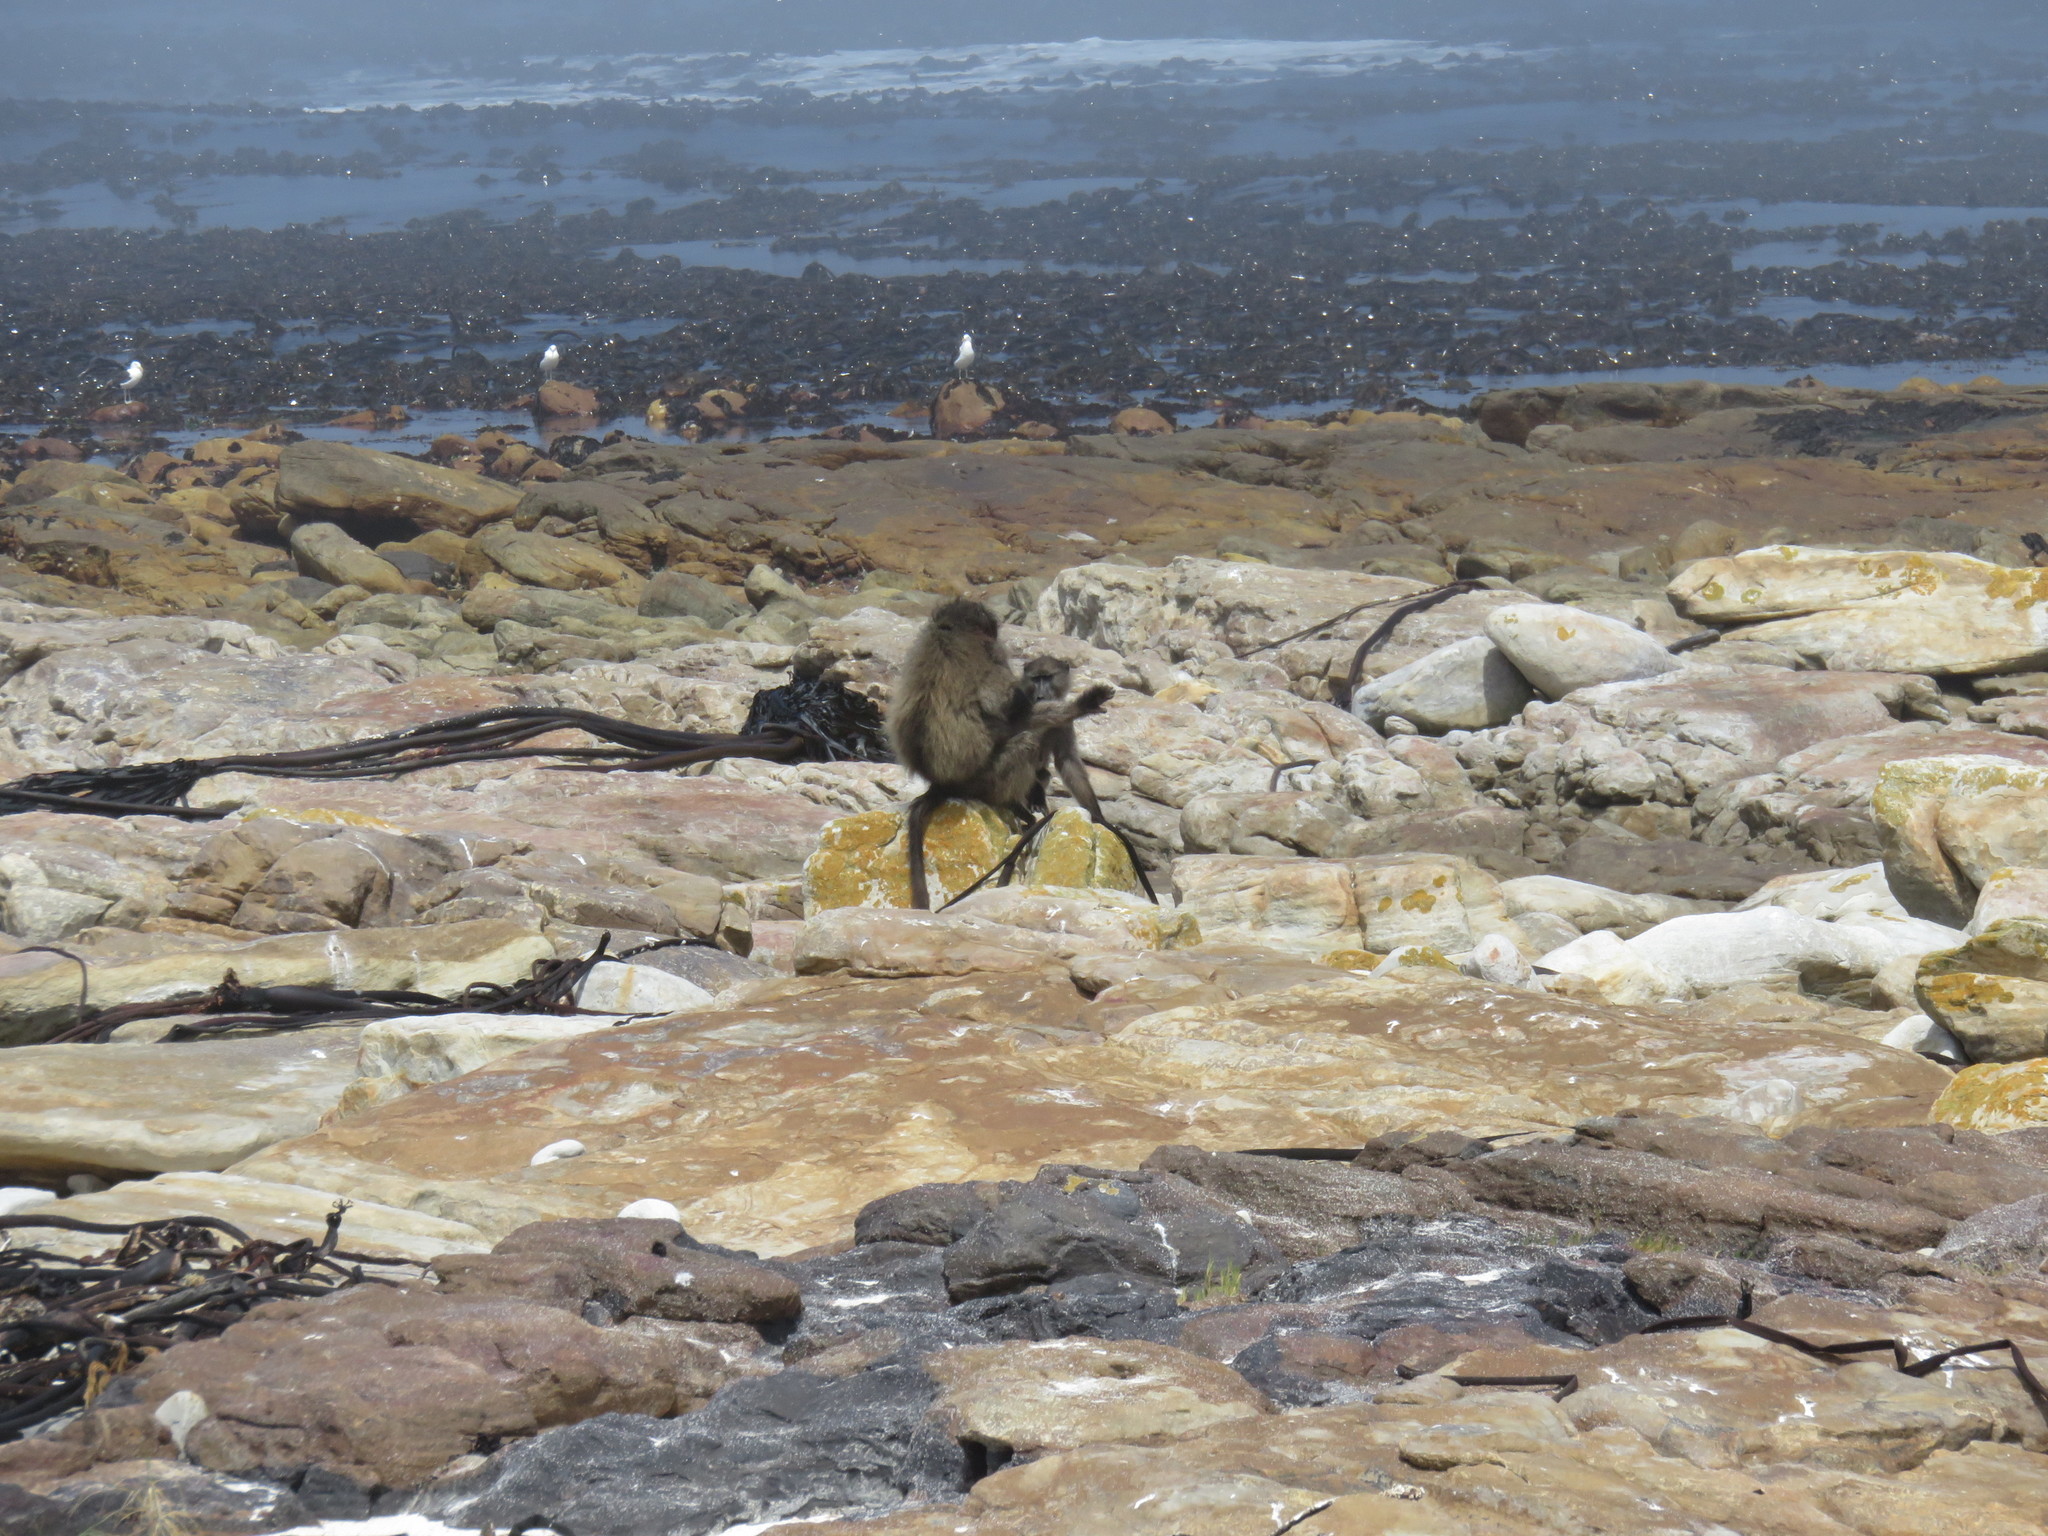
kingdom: Animalia
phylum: Chordata
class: Mammalia
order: Primates
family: Cercopithecidae
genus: Papio
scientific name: Papio ursinus
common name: Chacma baboon
